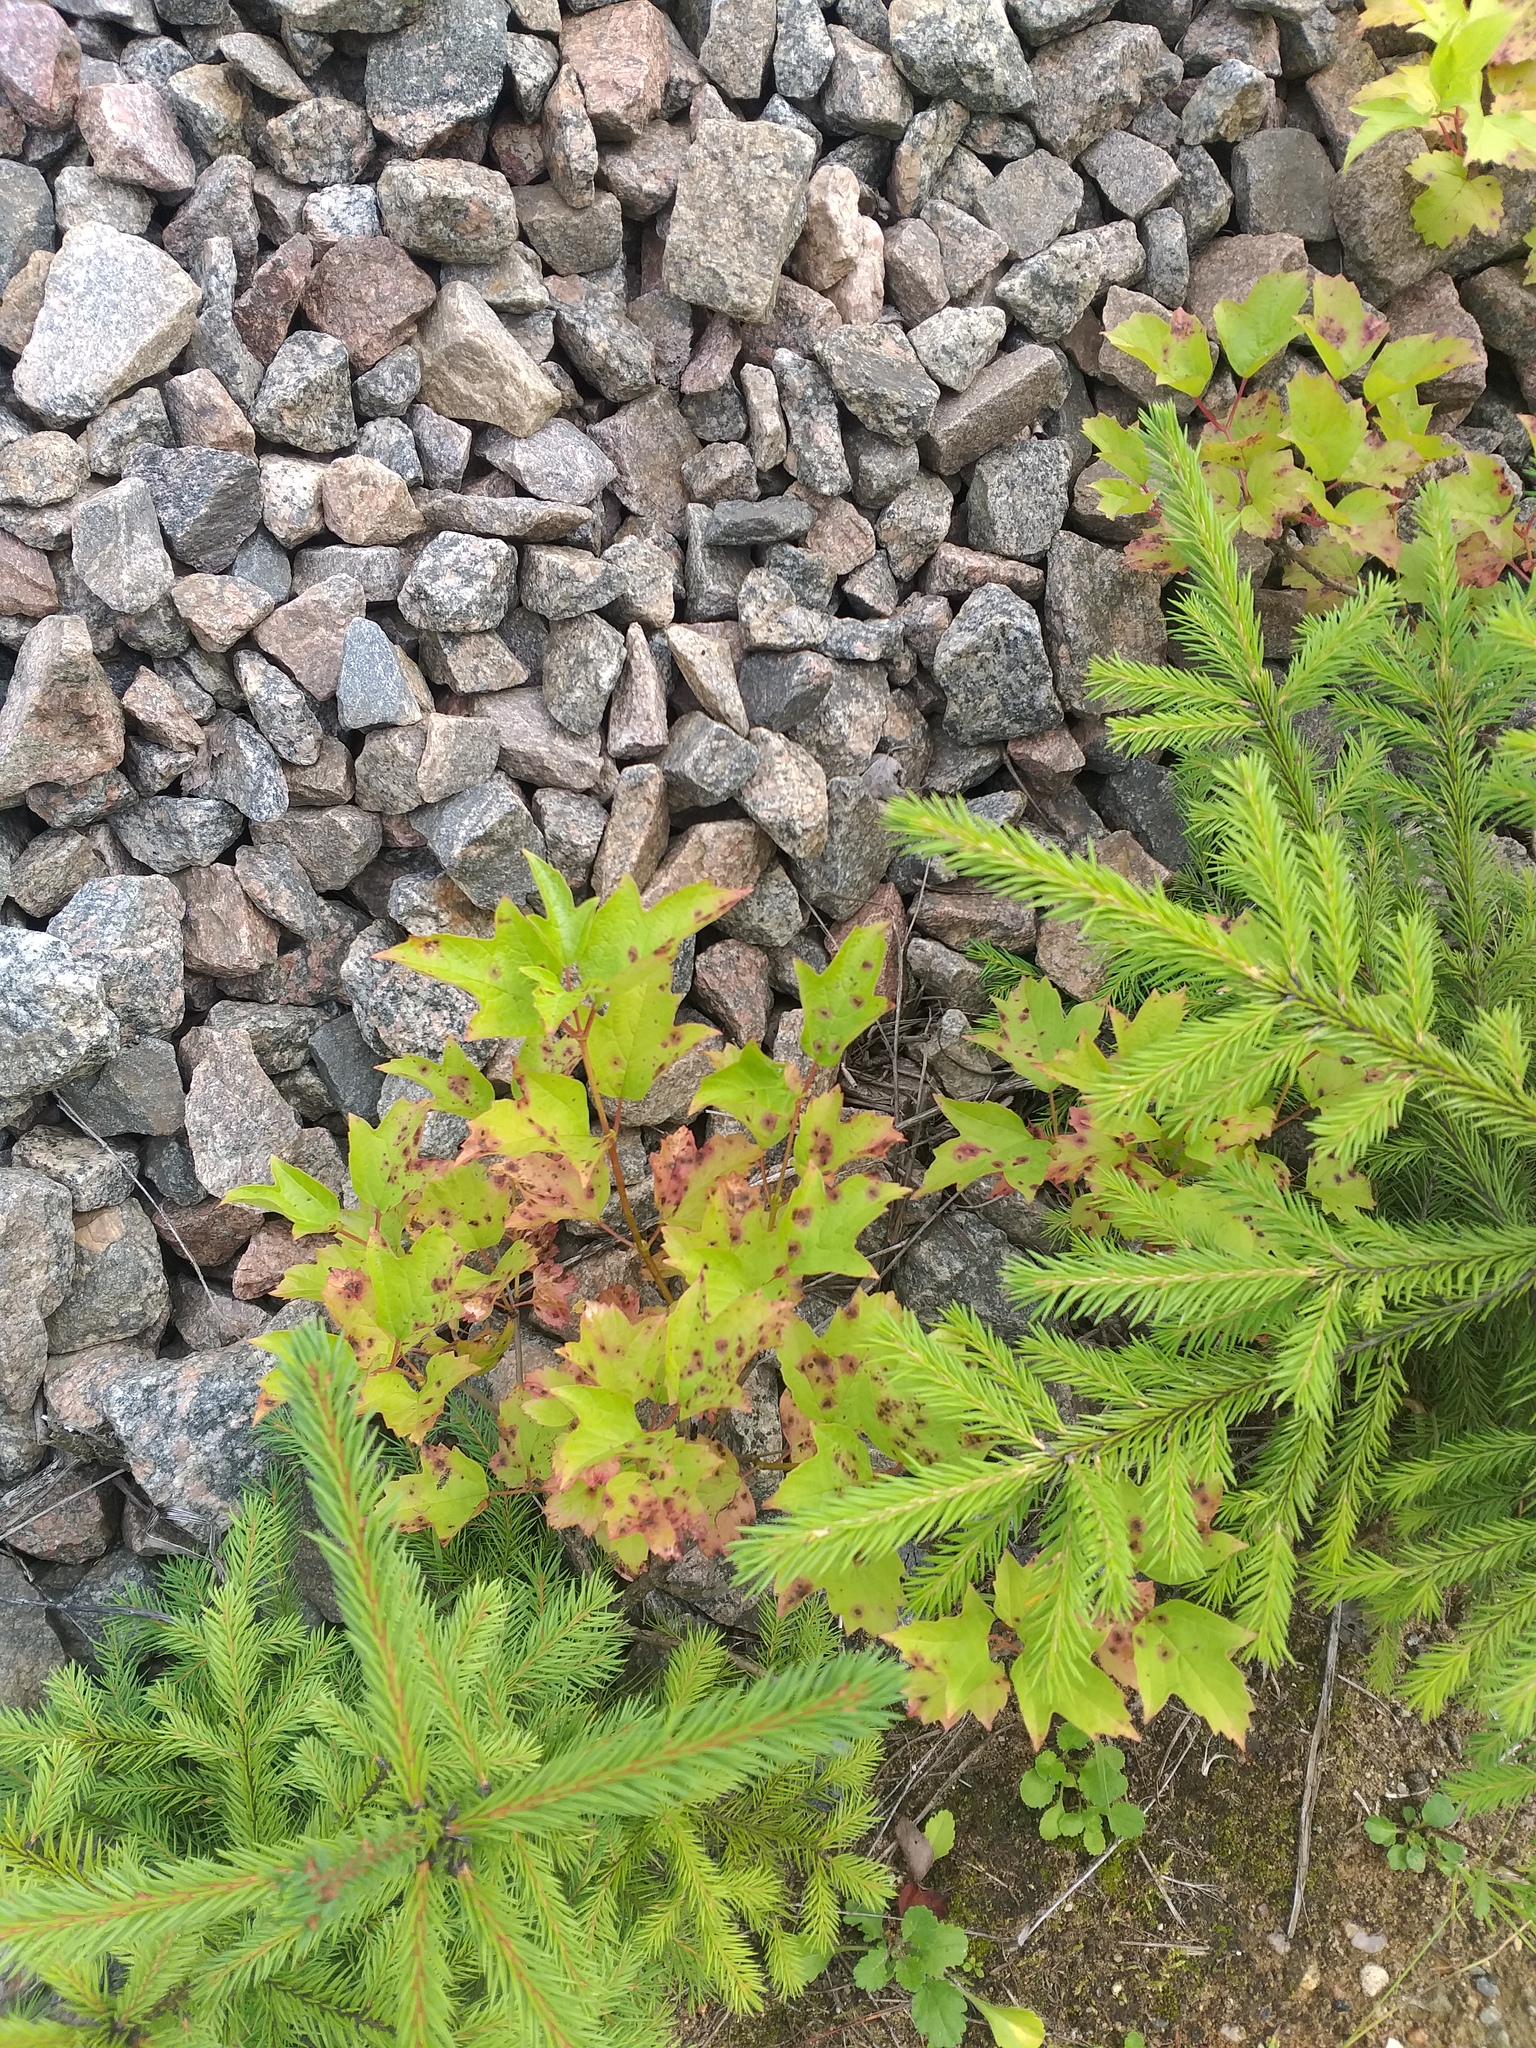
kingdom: Plantae
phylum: Tracheophyta
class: Magnoliopsida
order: Dipsacales
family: Viburnaceae
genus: Viburnum
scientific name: Viburnum opulus
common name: Guelder-rose
